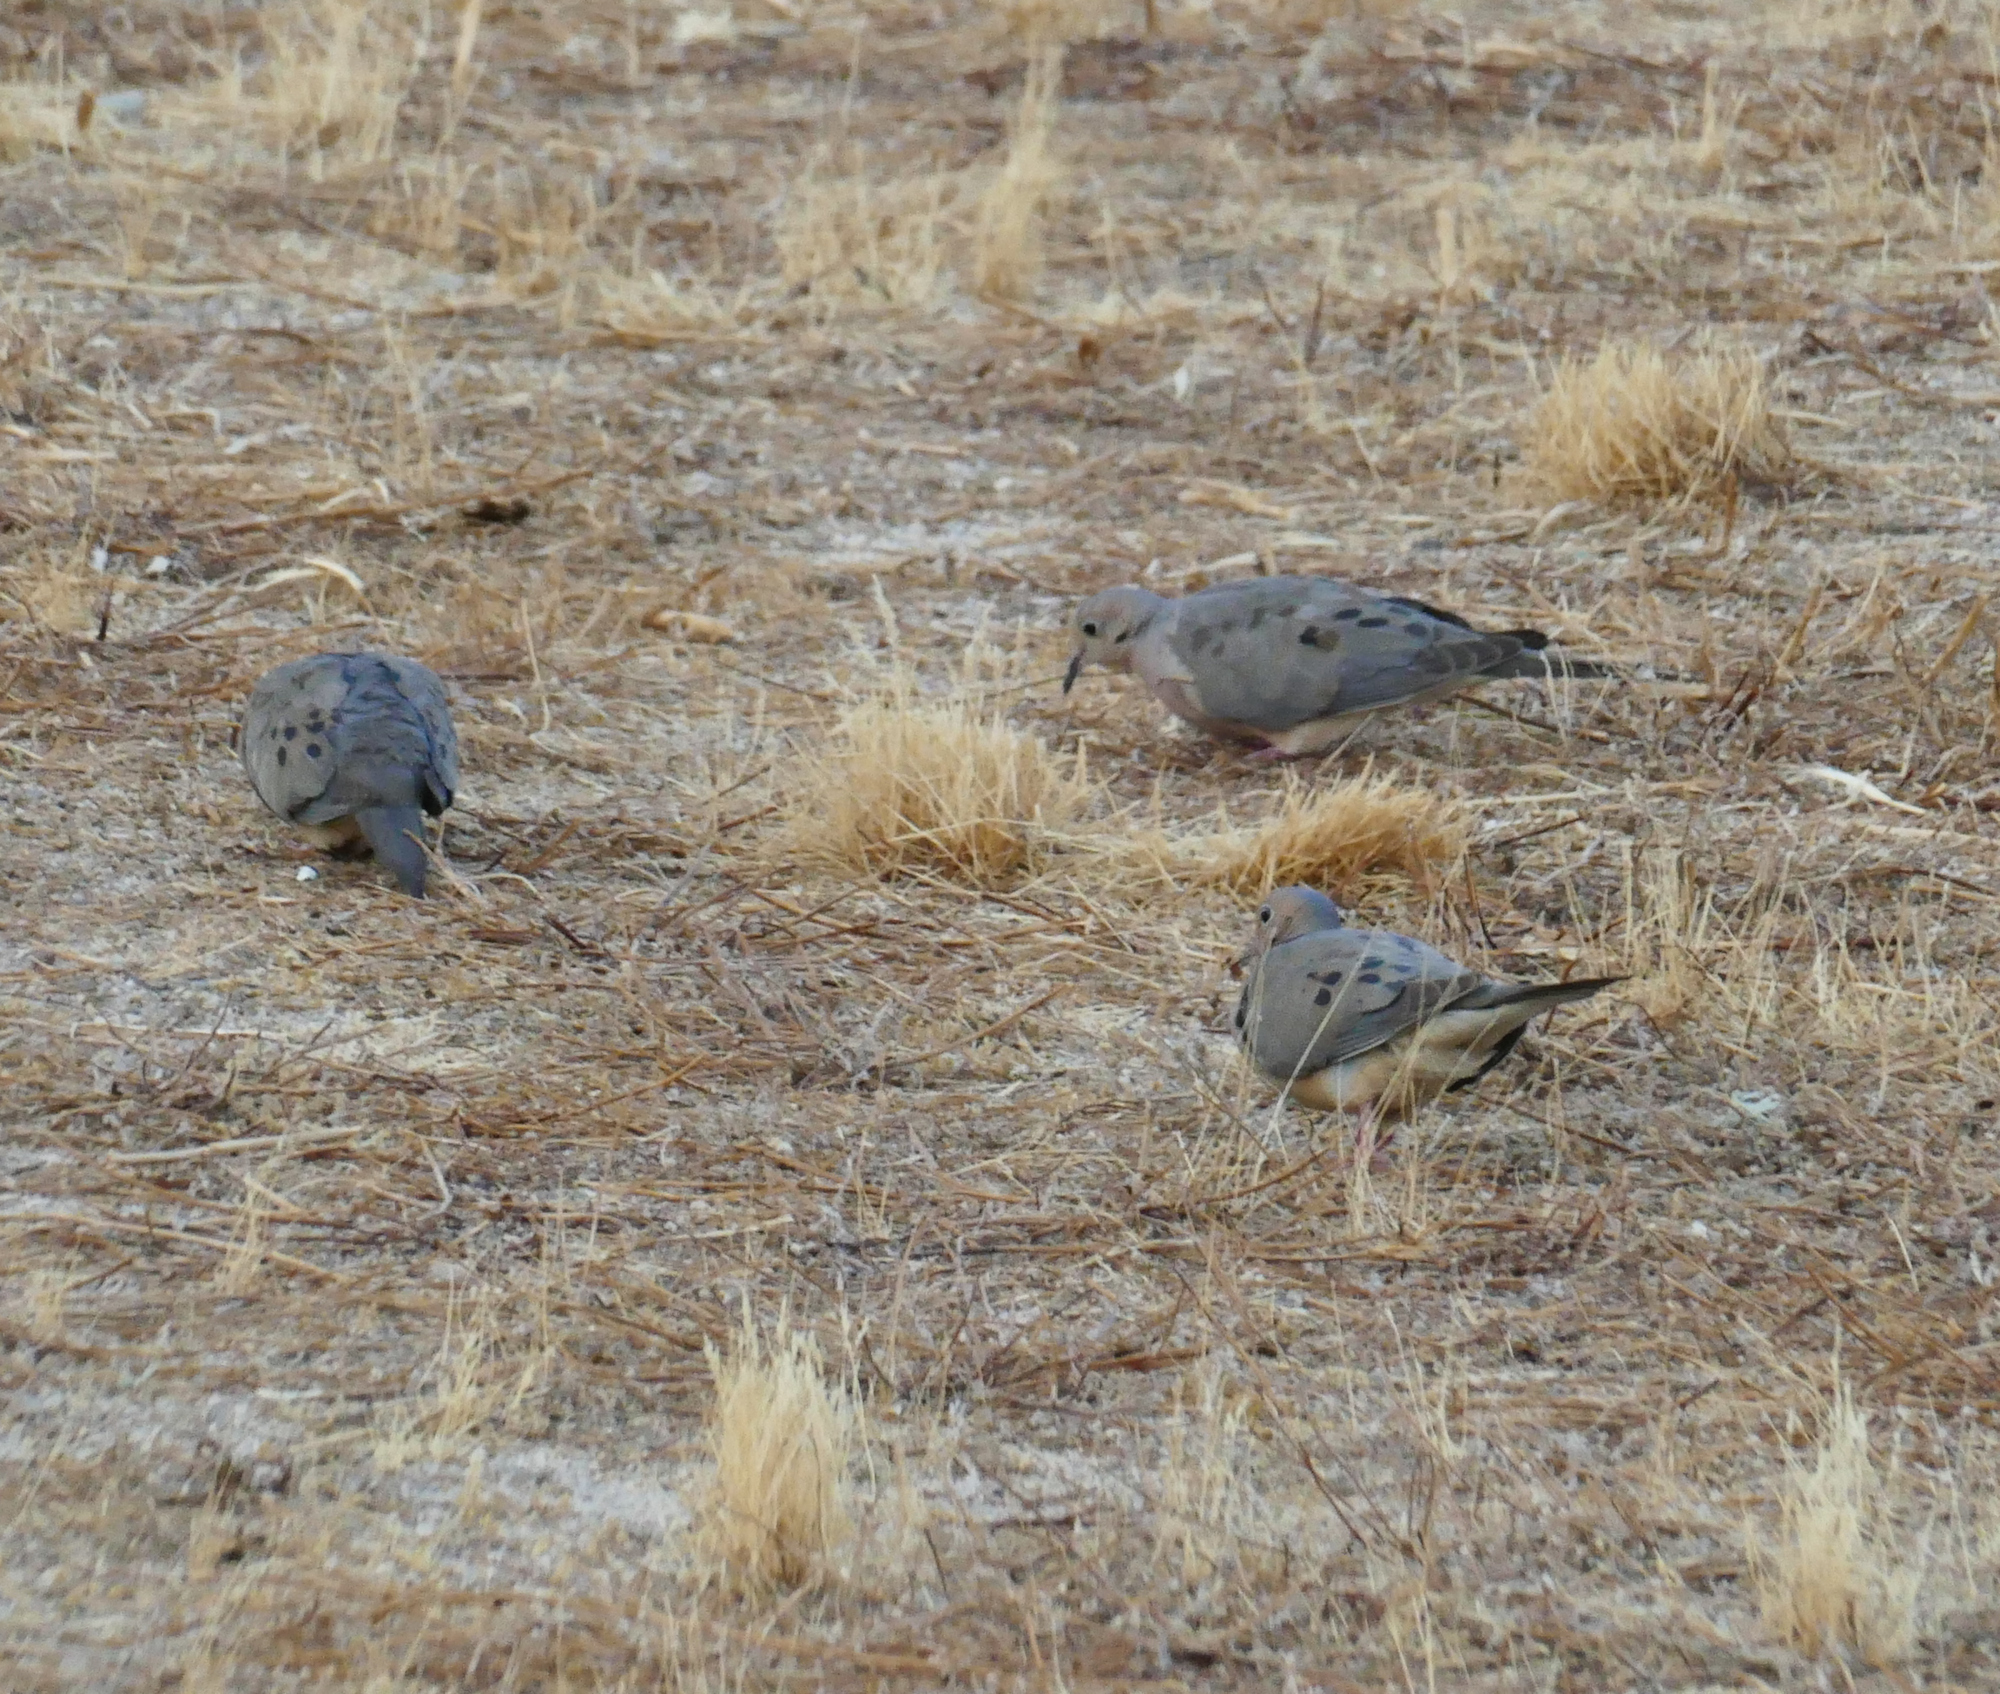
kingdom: Animalia
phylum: Chordata
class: Aves
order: Columbiformes
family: Columbidae
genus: Zenaida
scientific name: Zenaida macroura
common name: Mourning dove
